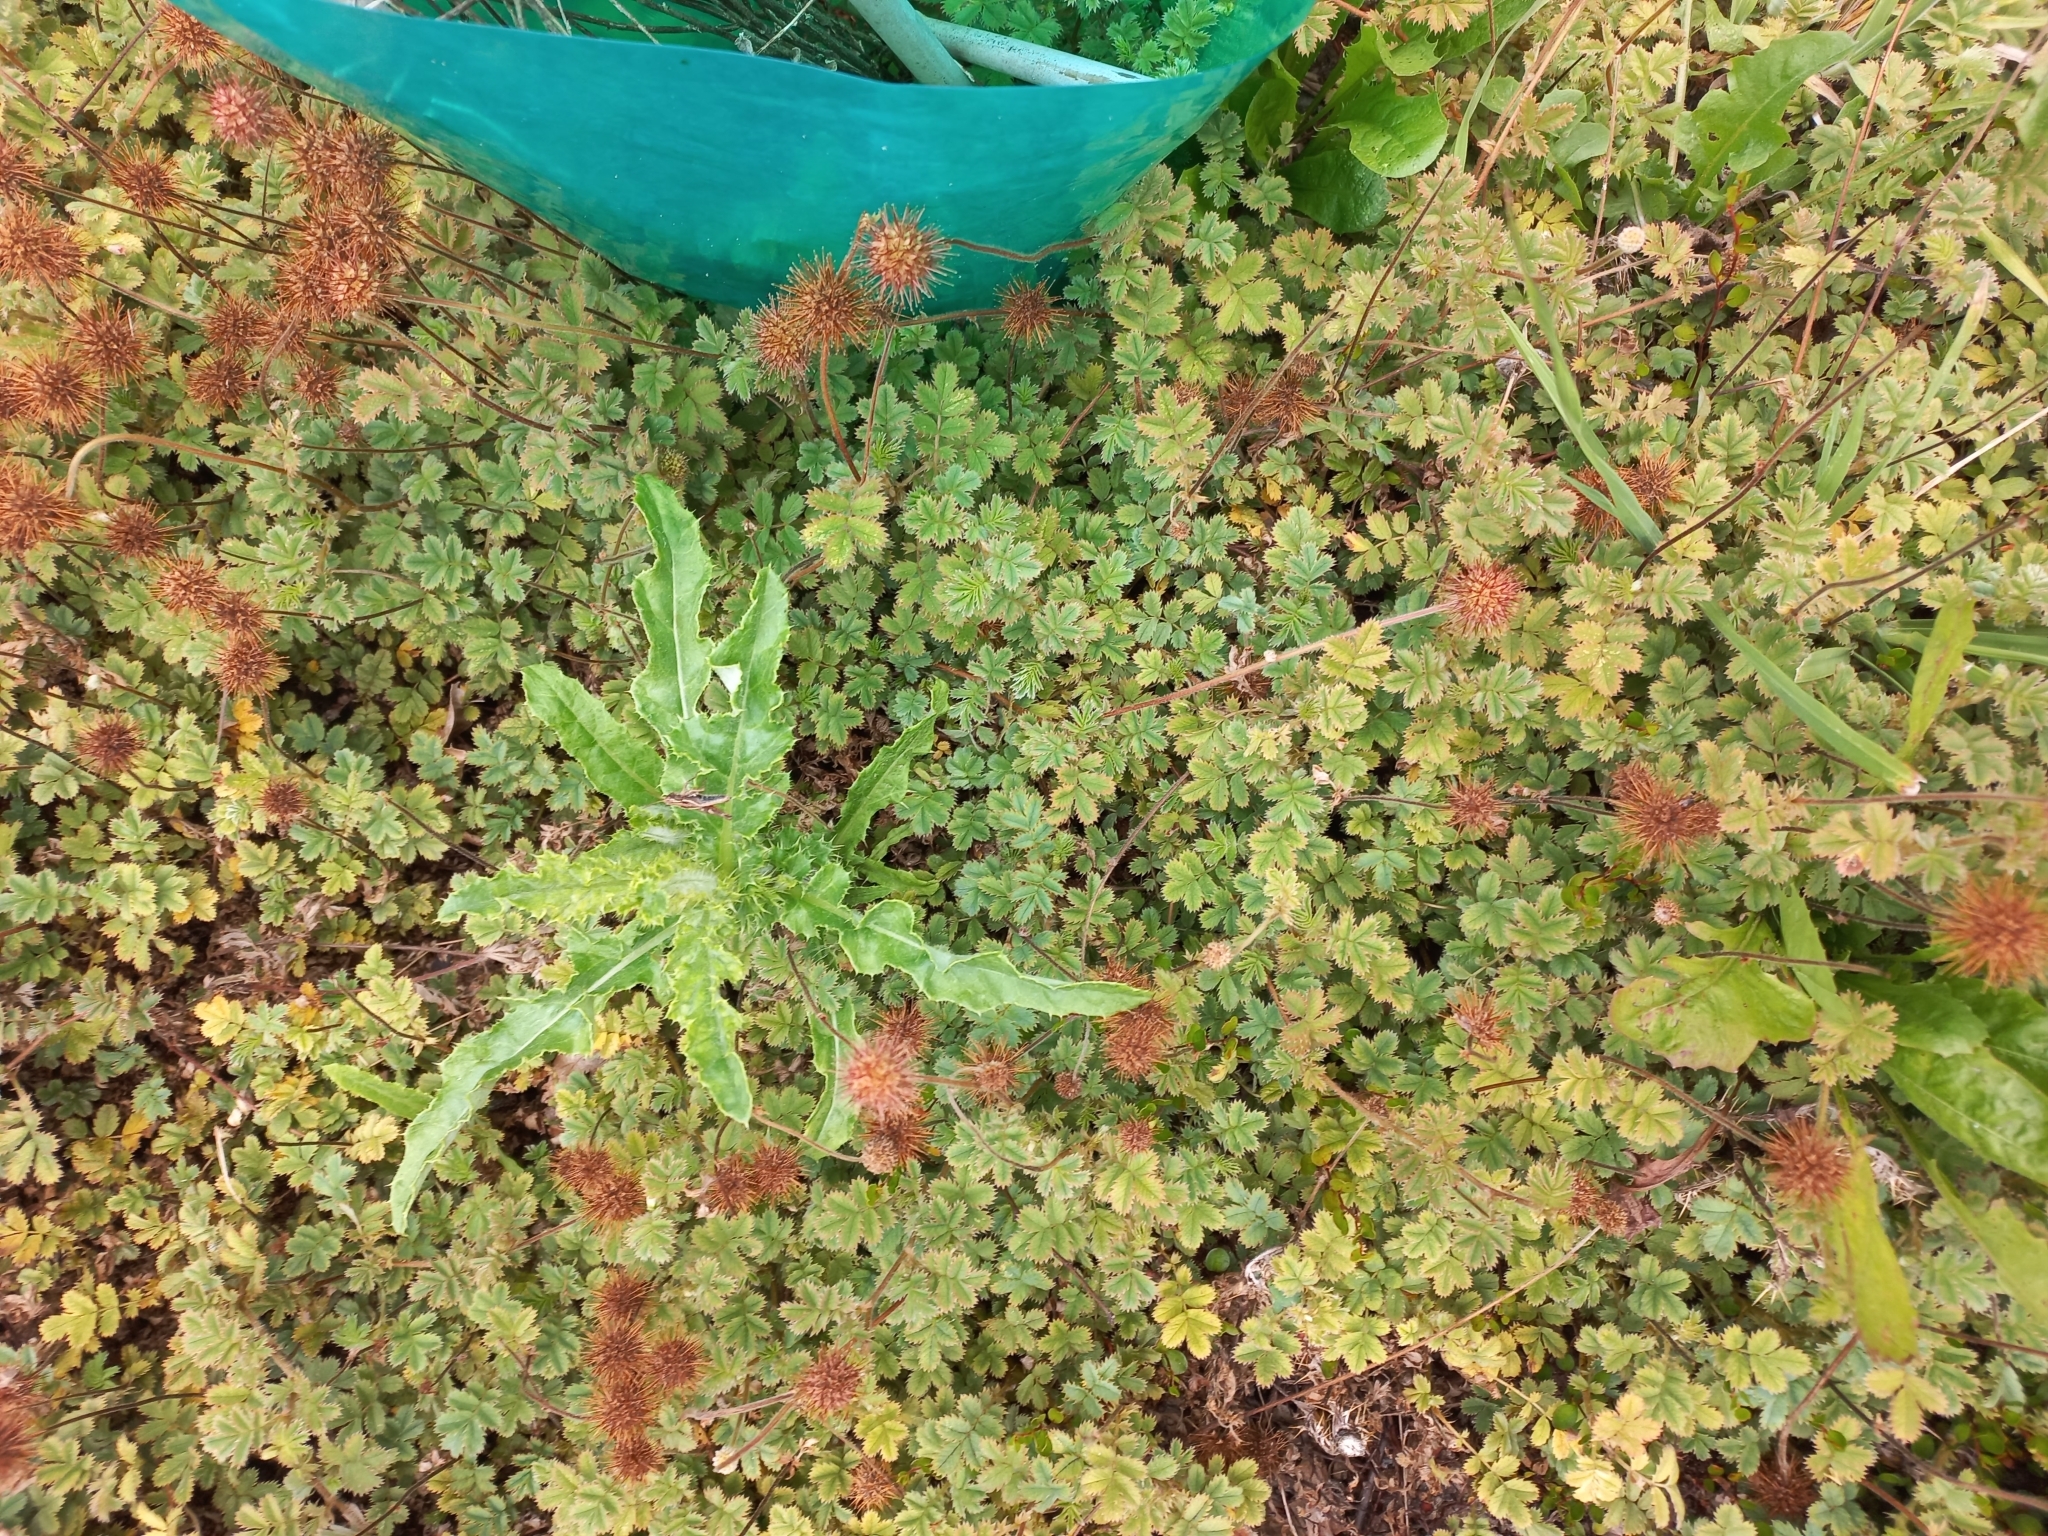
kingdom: Animalia
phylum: Arthropoda
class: Insecta
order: Orthoptera
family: Acrididae
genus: Phaulacridium
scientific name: Phaulacridium marginale
